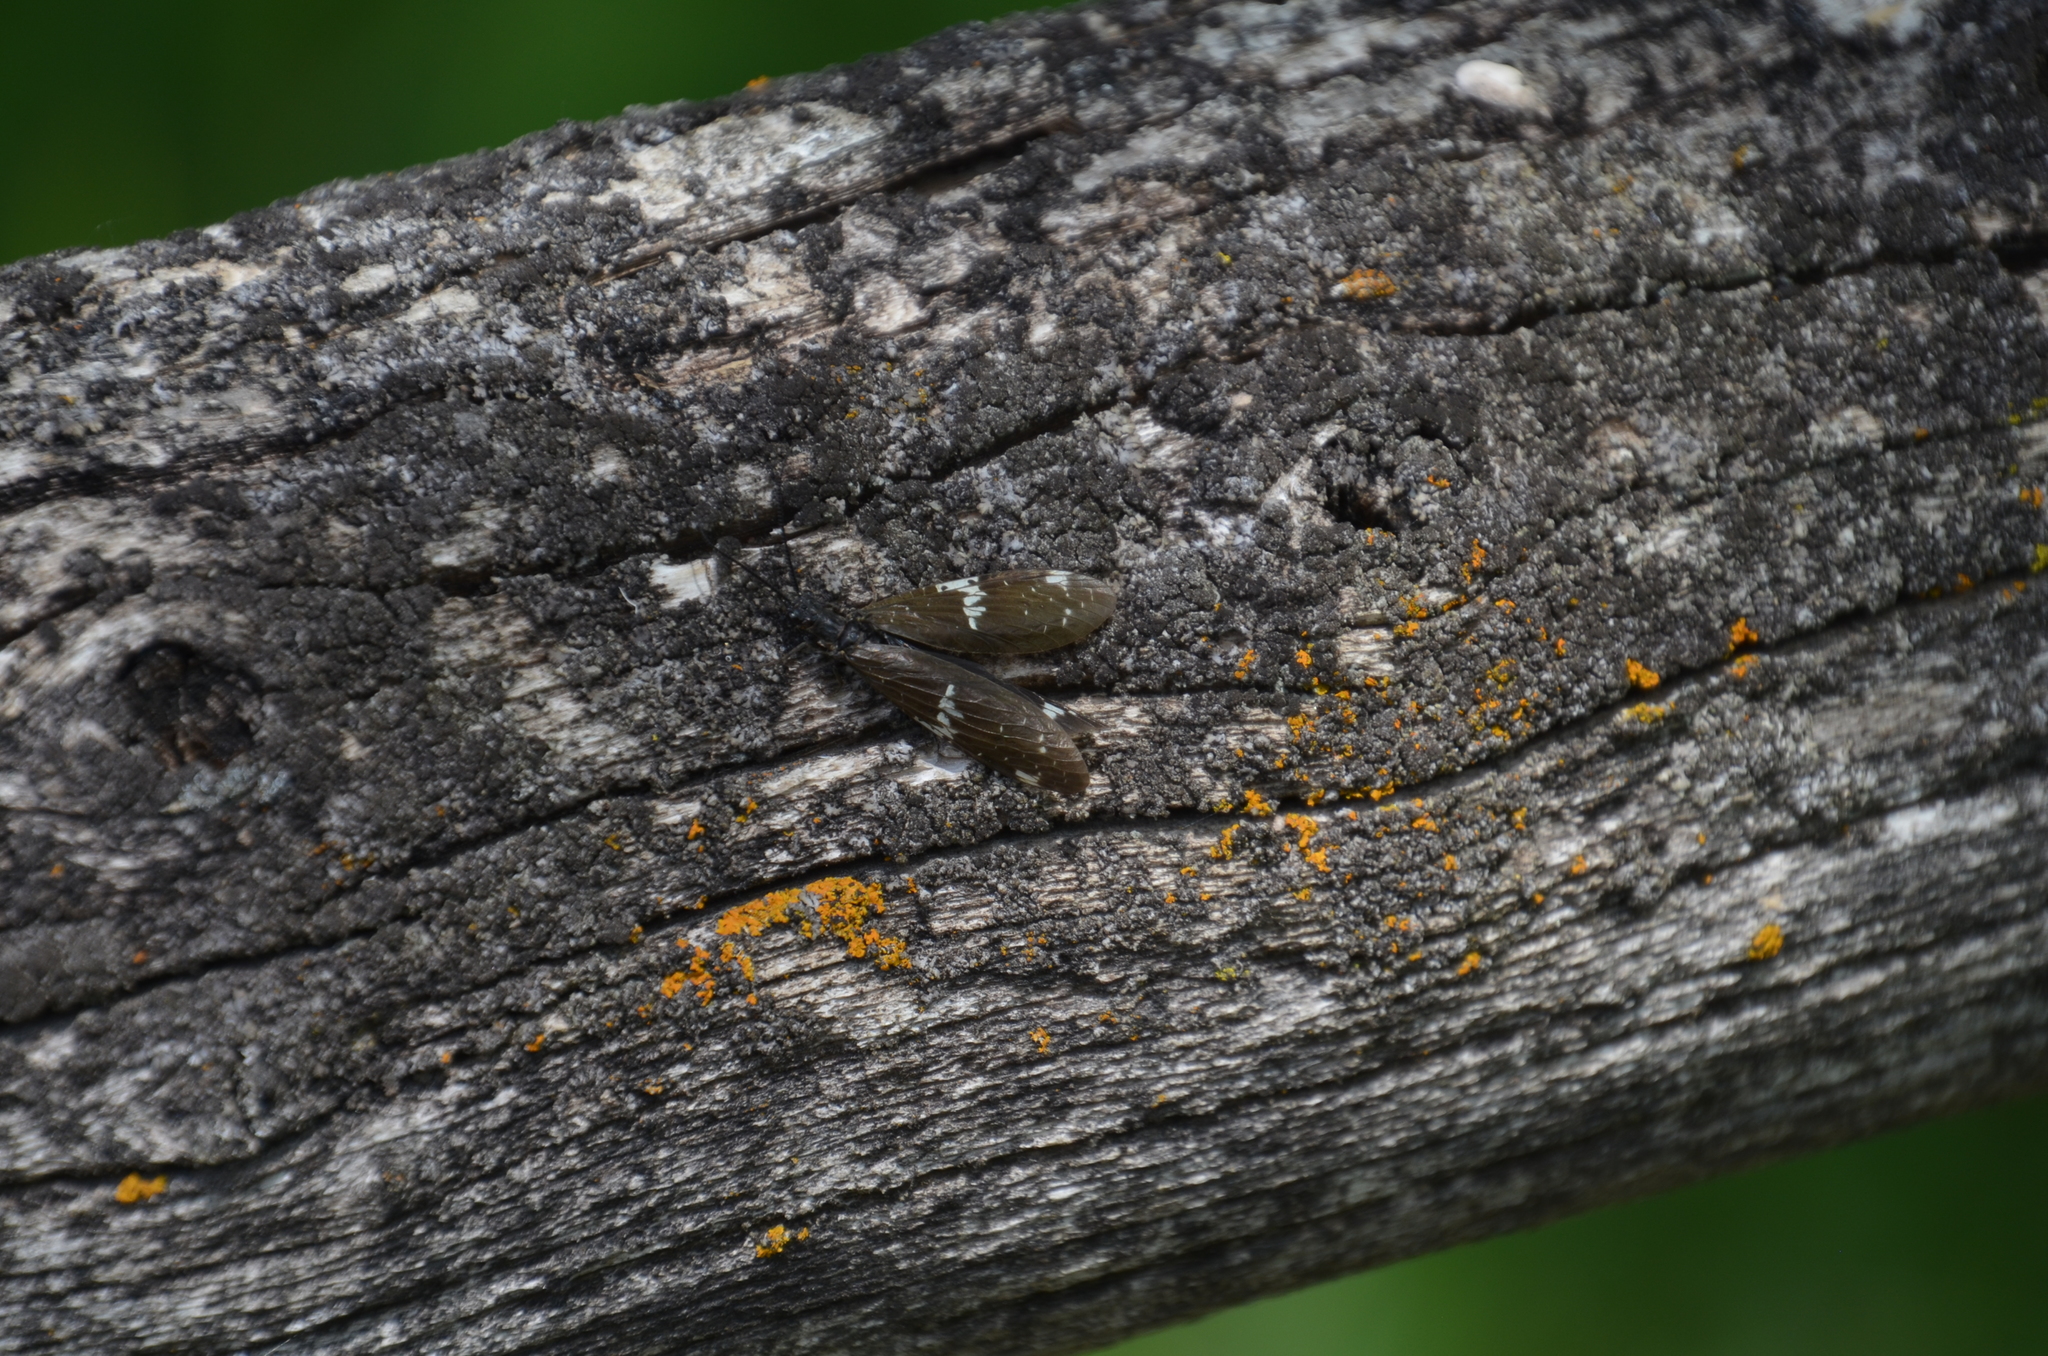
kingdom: Animalia
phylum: Arthropoda
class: Insecta
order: Megaloptera
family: Corydalidae
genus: Nigronia
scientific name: Nigronia serricornis
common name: Serrate dark fishfly
